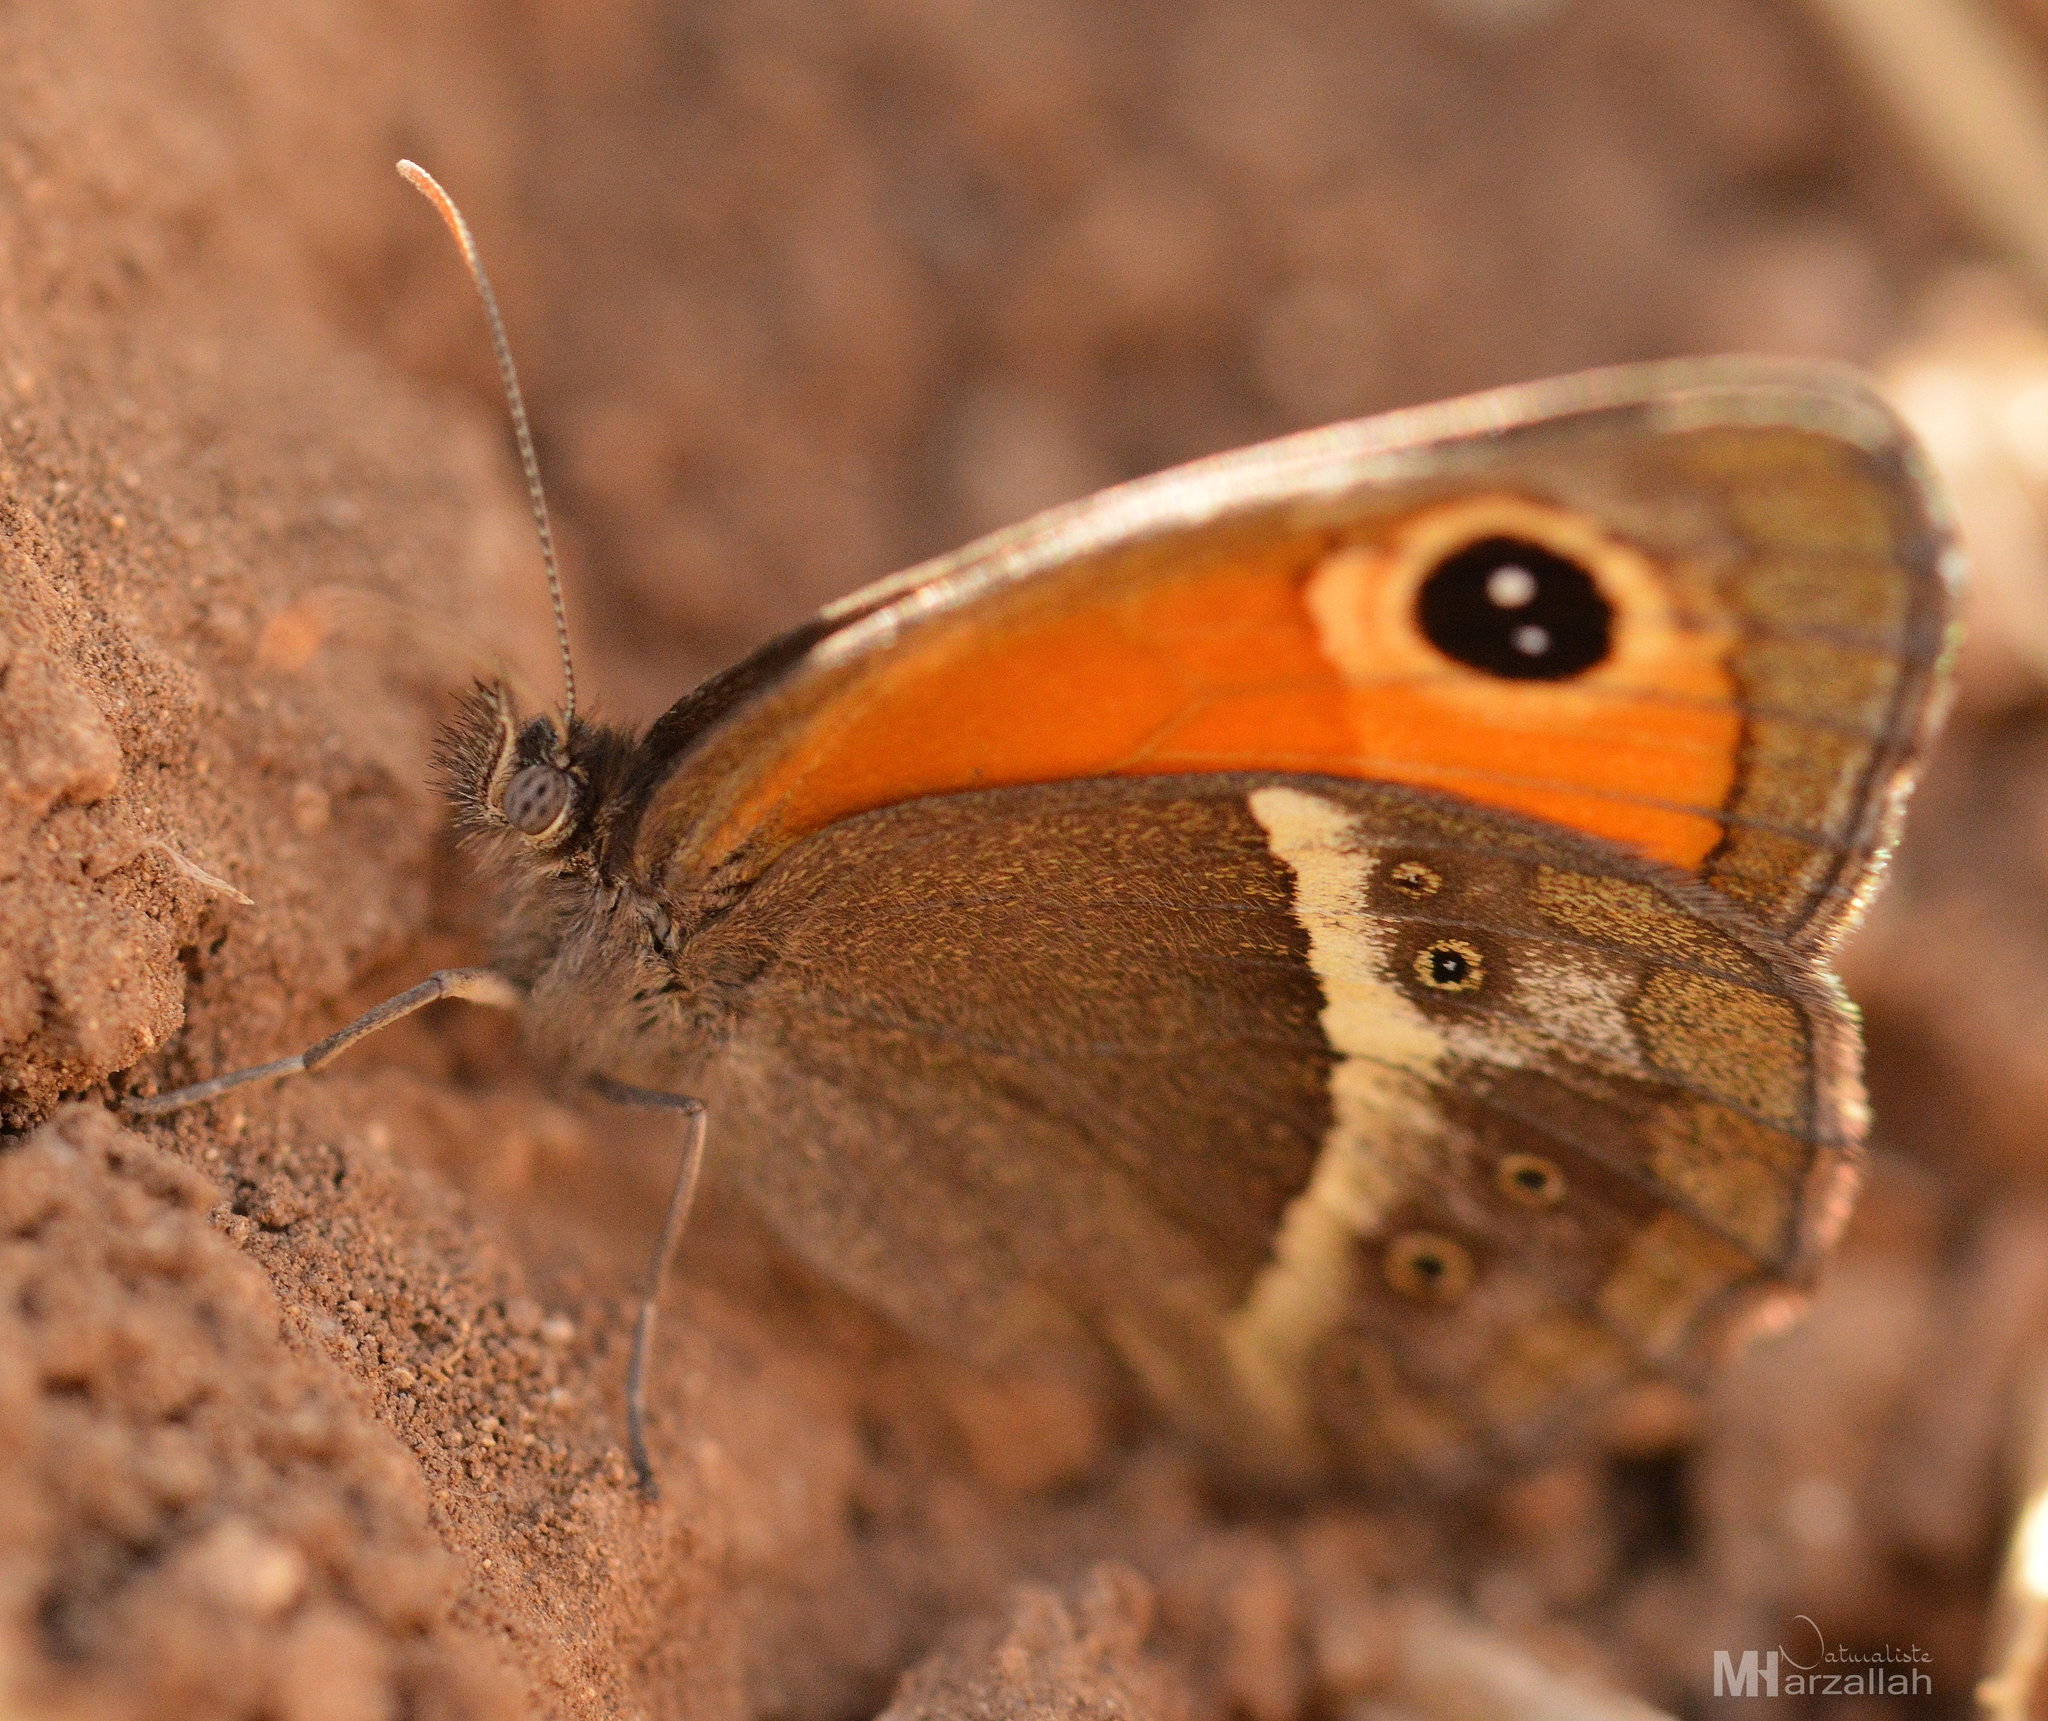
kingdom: Animalia
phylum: Arthropoda
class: Insecta
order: Lepidoptera
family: Nymphalidae
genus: Pyronia
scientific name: Pyronia bathseba
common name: Spanish gatekeeper
